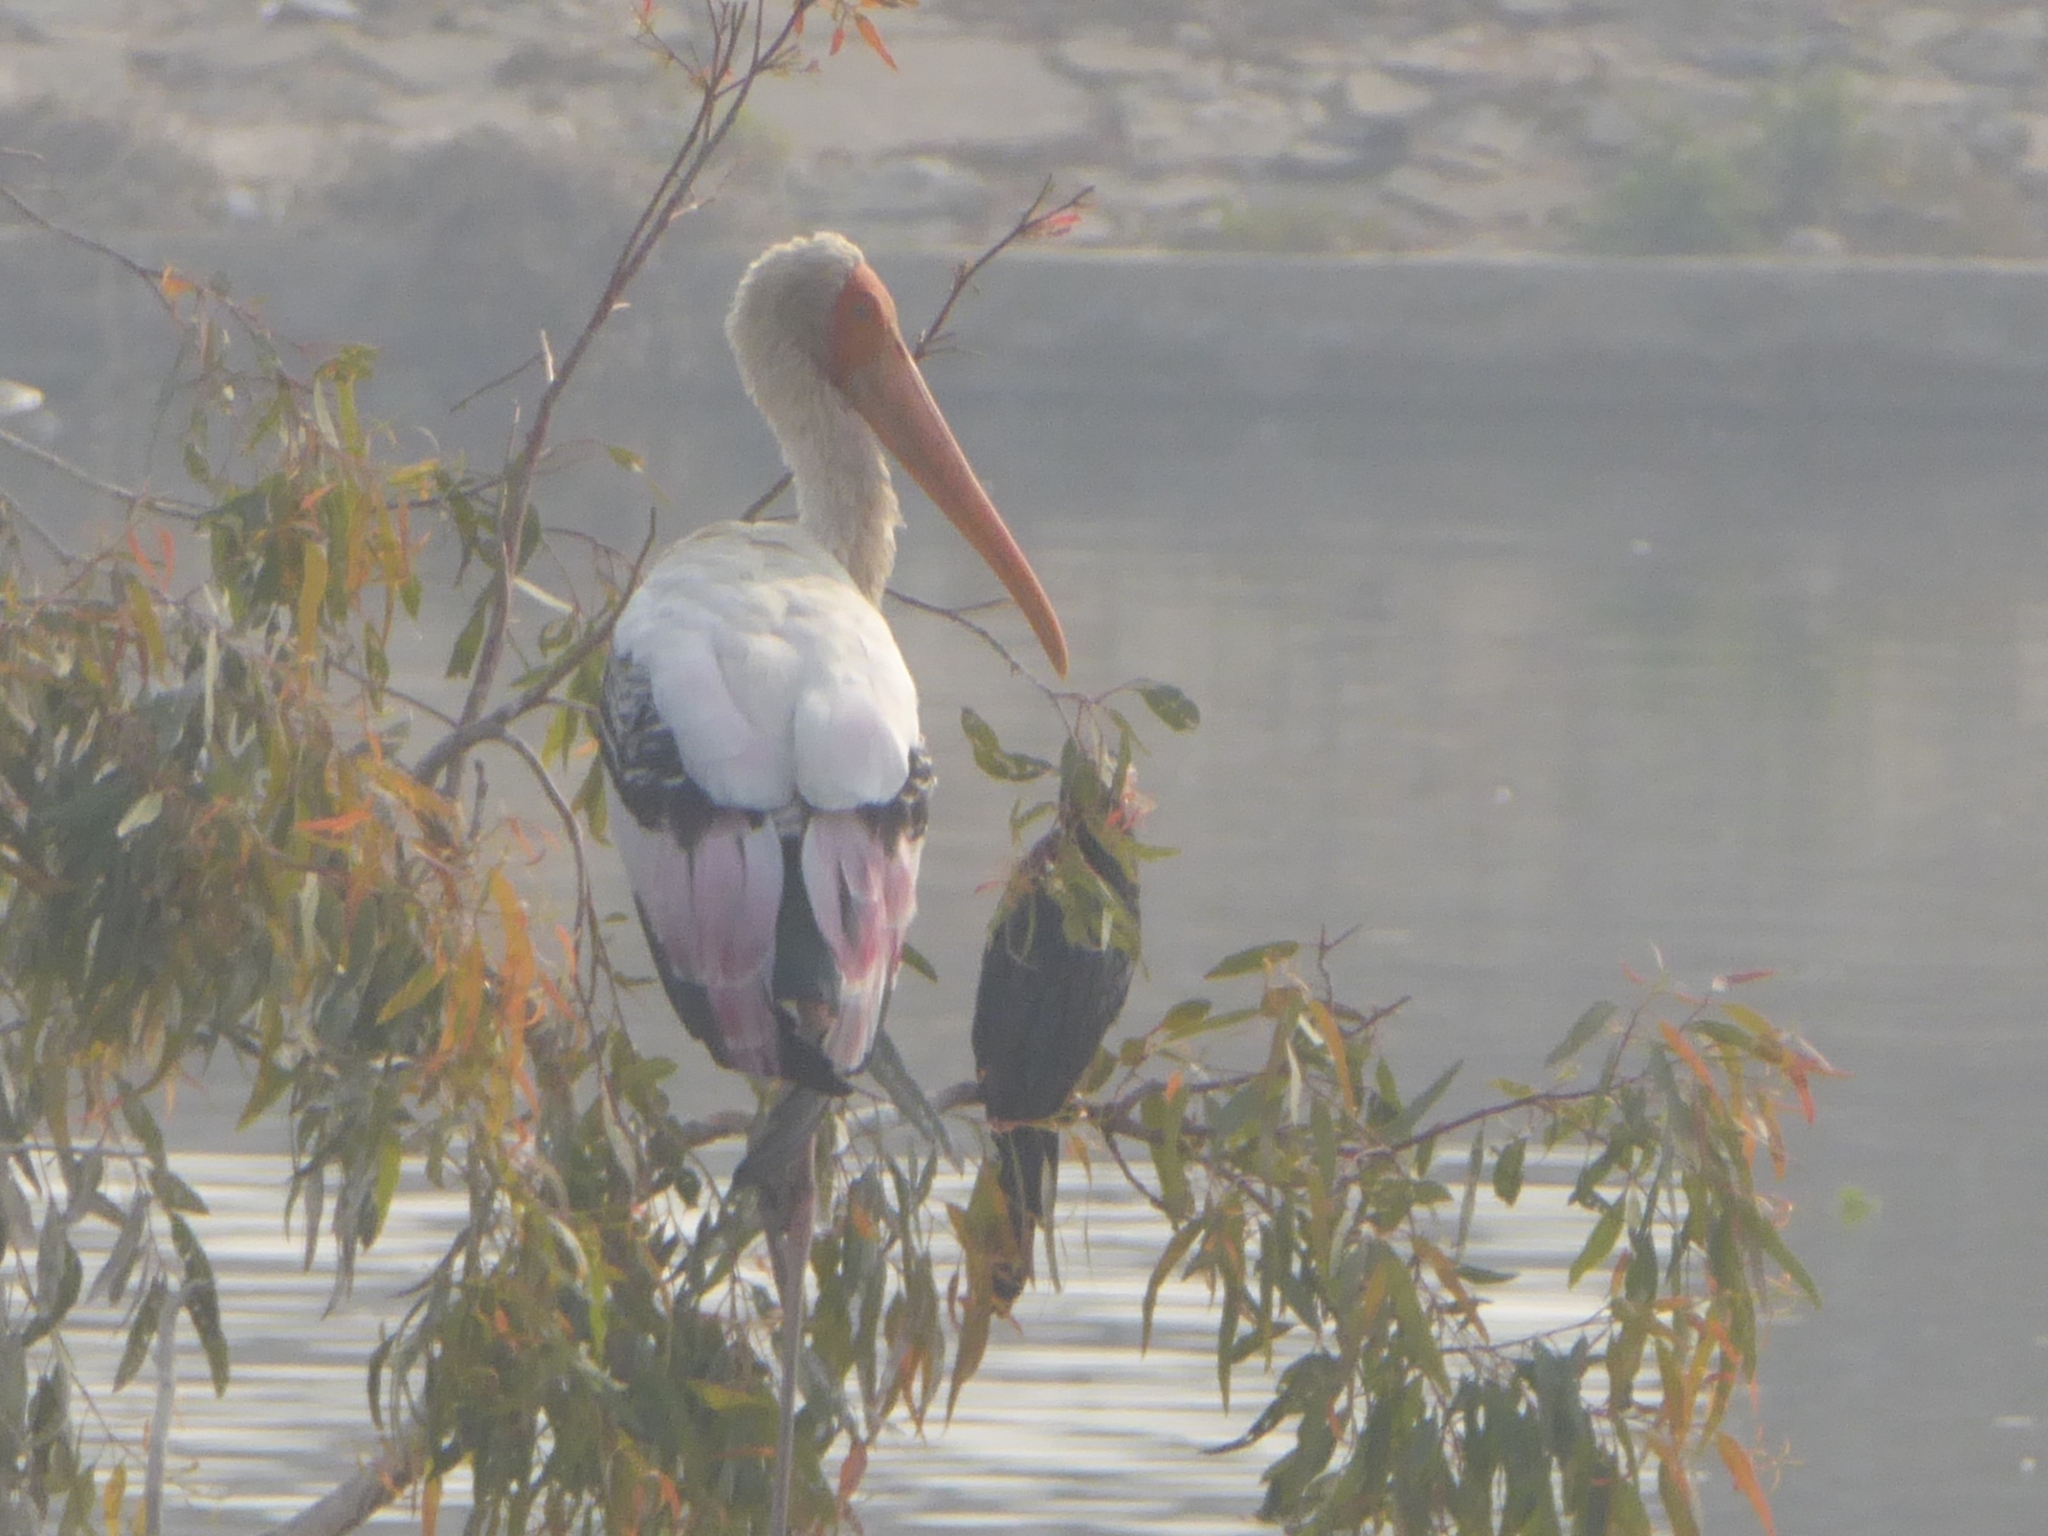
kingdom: Animalia
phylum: Chordata
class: Aves
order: Ciconiiformes
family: Ciconiidae
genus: Mycteria
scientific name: Mycteria leucocephala
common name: Painted stork
